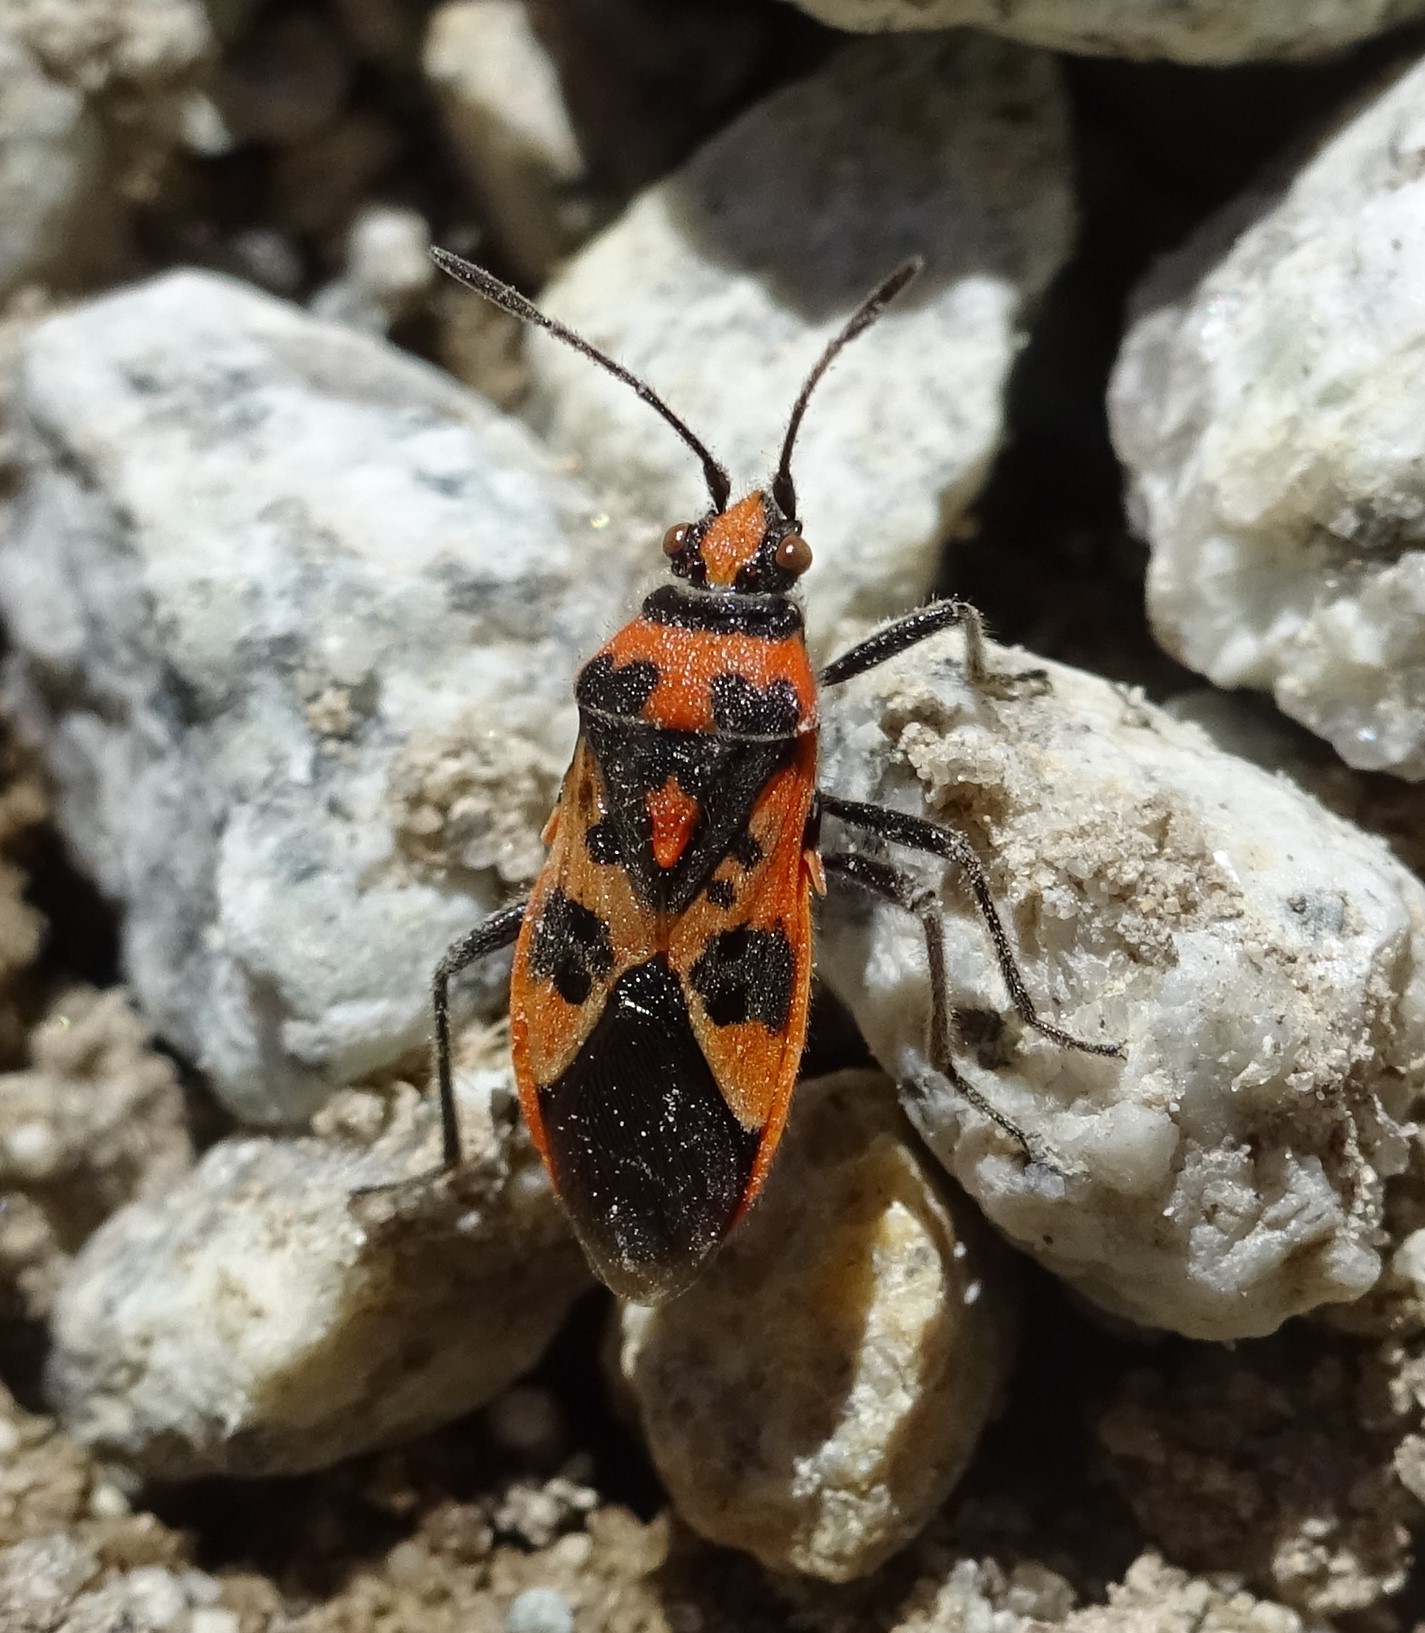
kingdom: Animalia
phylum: Arthropoda
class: Insecta
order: Hemiptera
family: Rhopalidae
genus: Corizus
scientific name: Corizus hyoscyami
